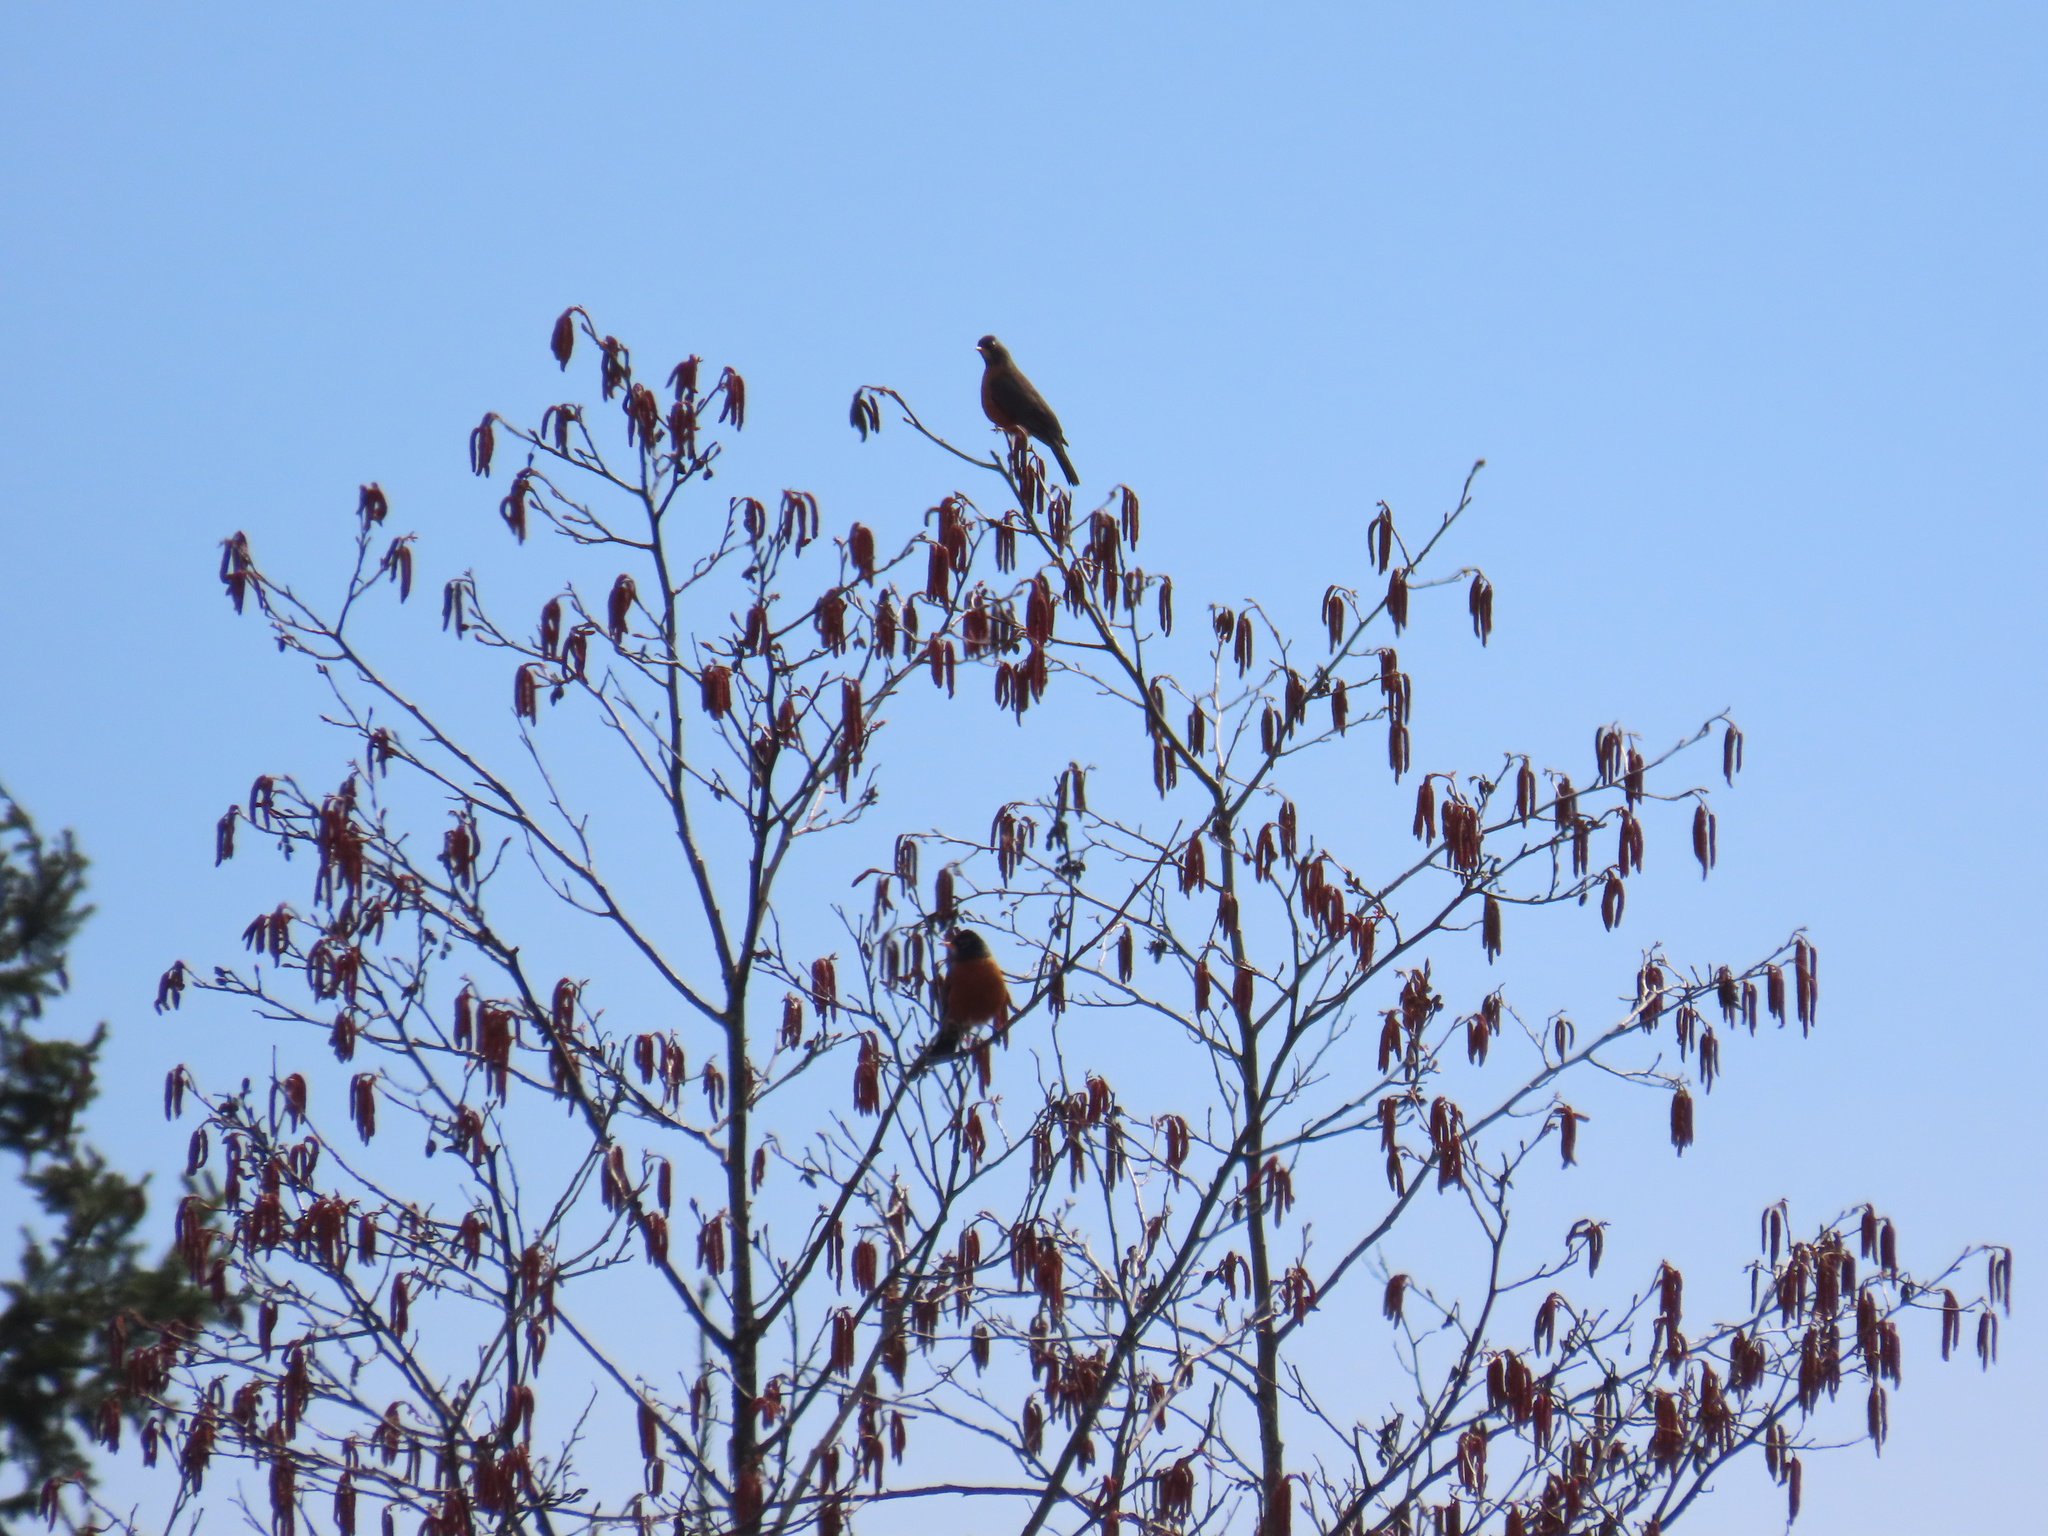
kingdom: Animalia
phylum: Chordata
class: Aves
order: Passeriformes
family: Turdidae
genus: Turdus
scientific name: Turdus migratorius
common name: American robin
